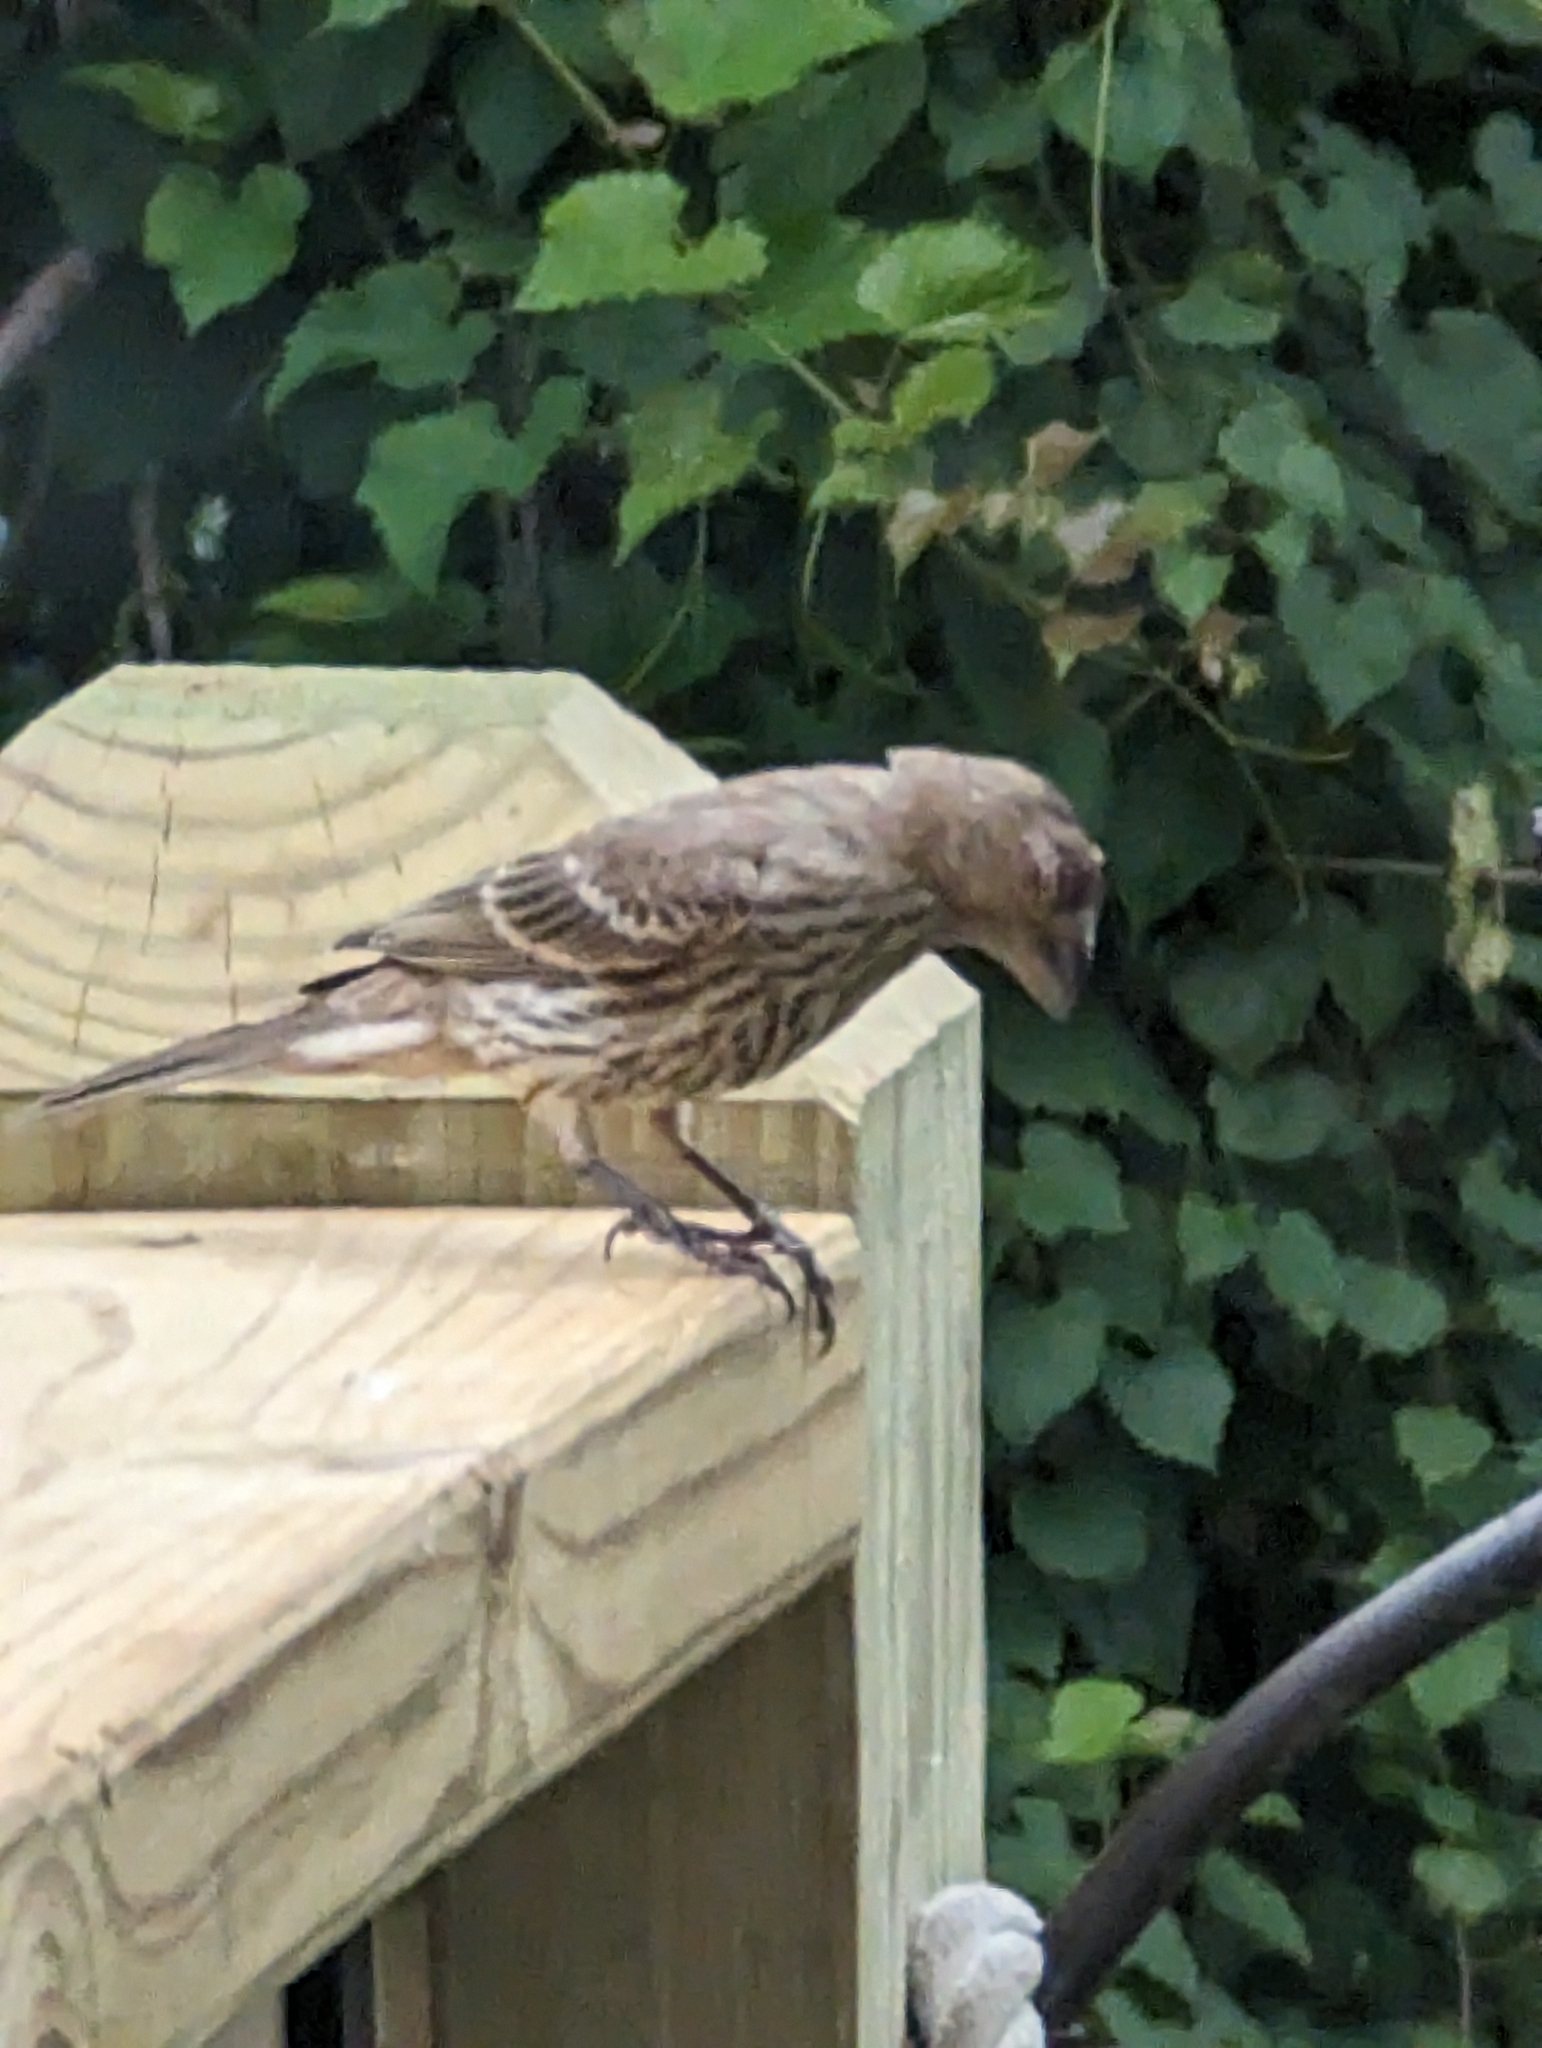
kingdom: Animalia
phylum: Chordata
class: Aves
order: Passeriformes
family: Fringillidae
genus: Haemorhous
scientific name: Haemorhous mexicanus
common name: House finch
